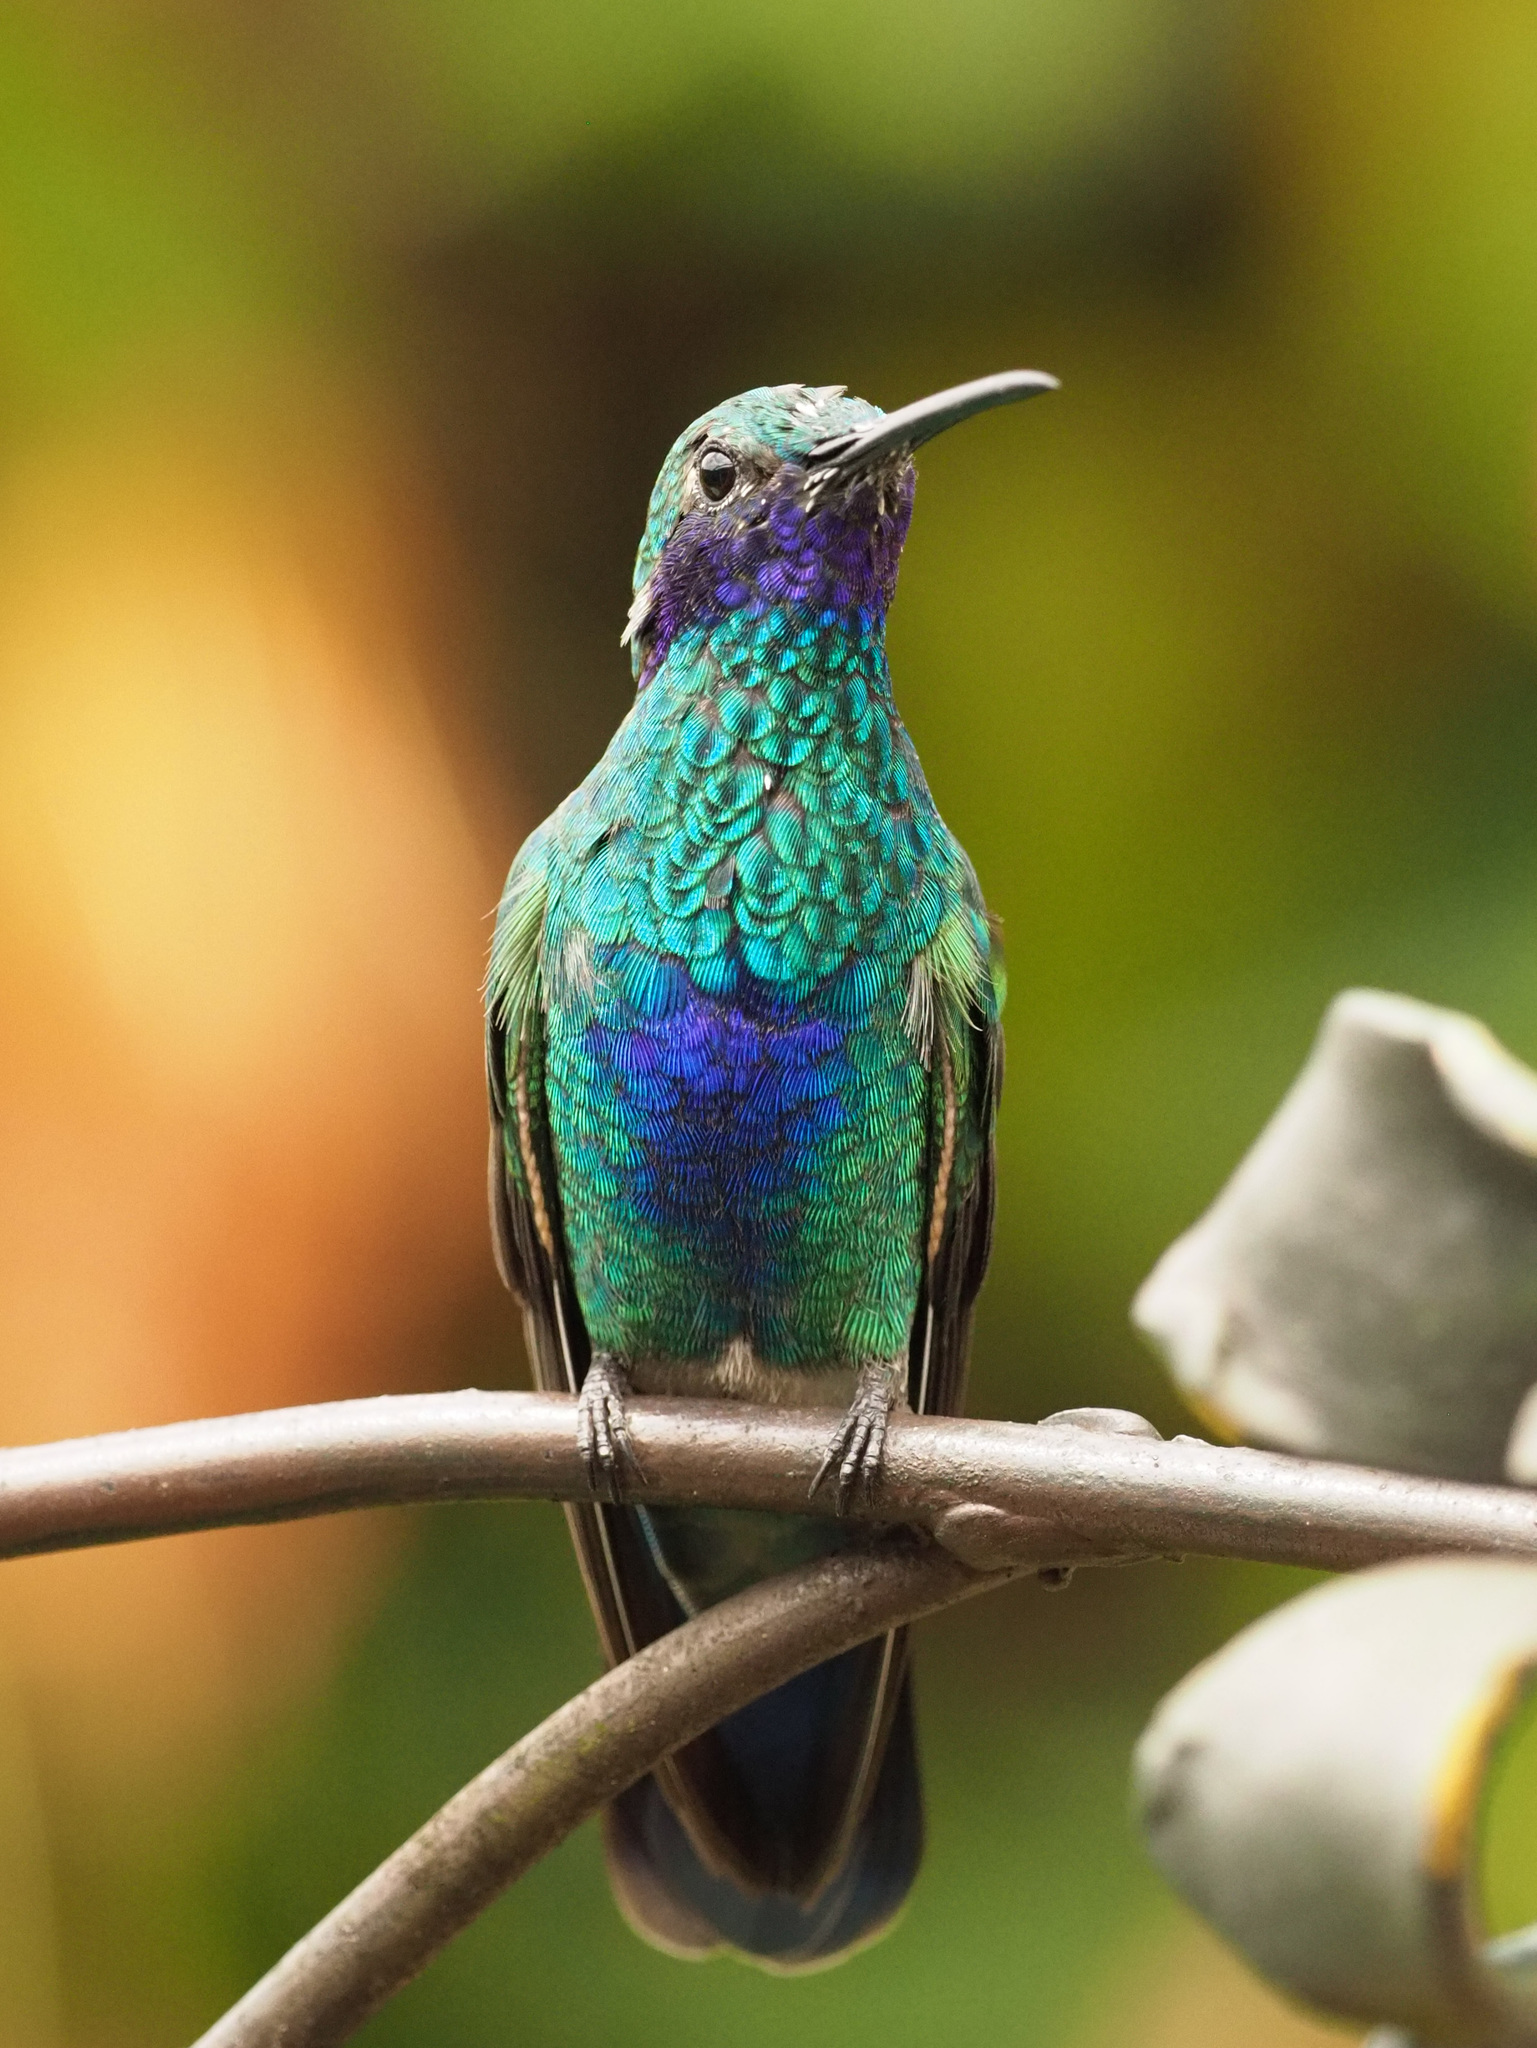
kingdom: Animalia
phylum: Chordata
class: Aves
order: Apodiformes
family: Trochilidae
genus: Colibri
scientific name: Colibri cyanotus
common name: Lesser violetear
